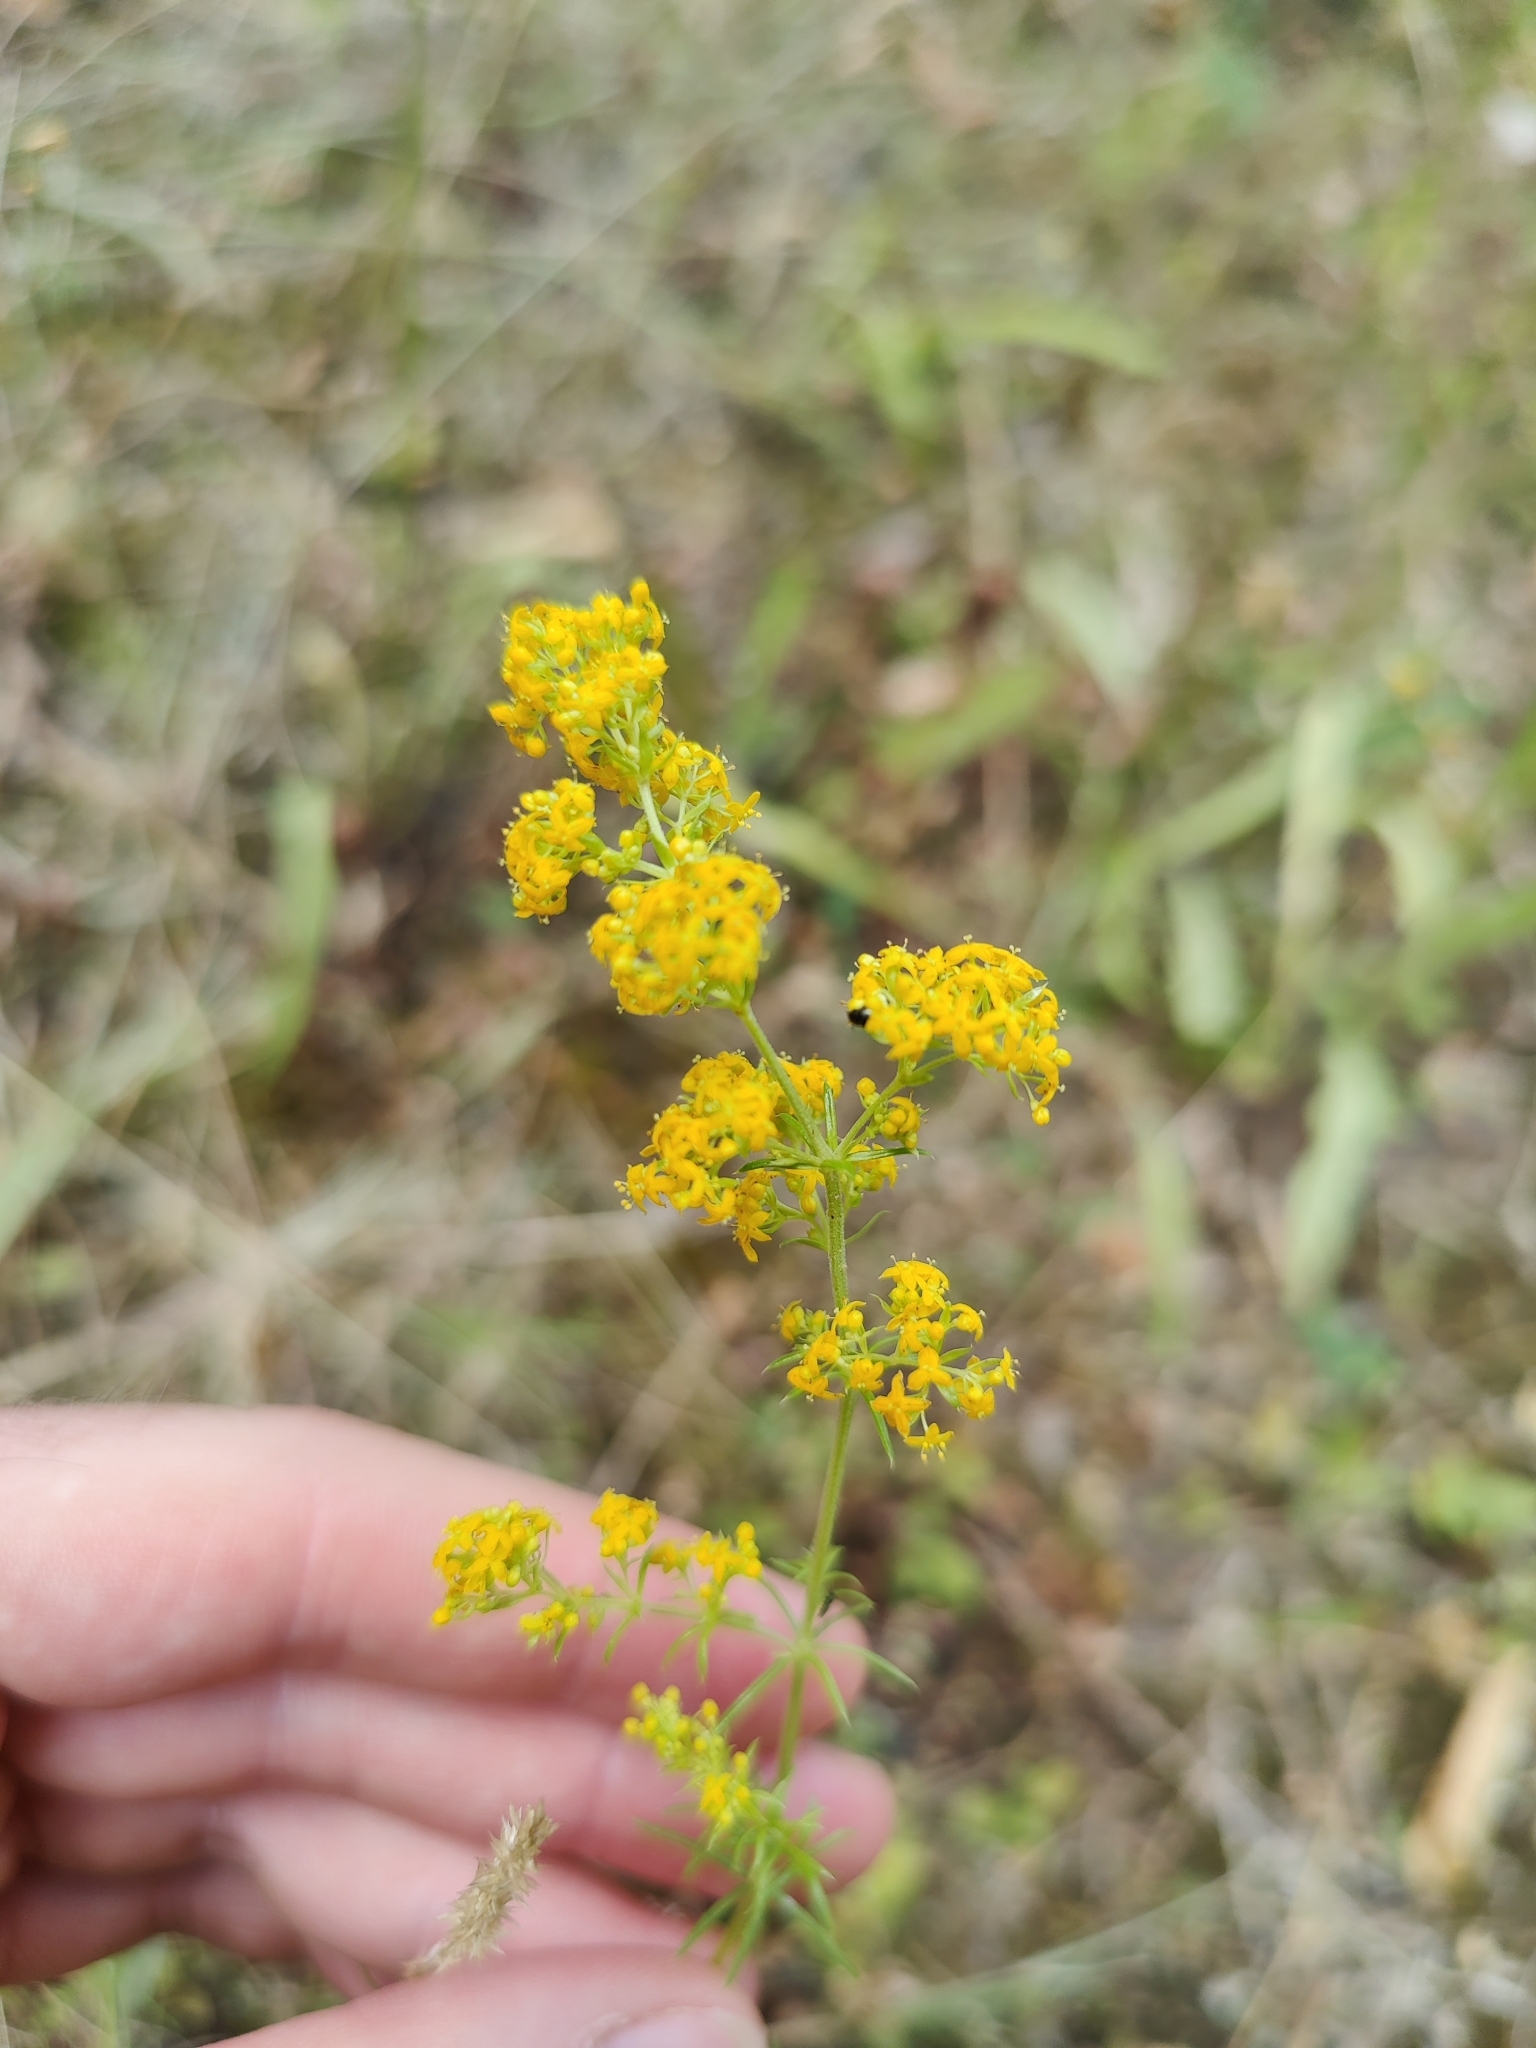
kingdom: Plantae
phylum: Tracheophyta
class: Magnoliopsida
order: Gentianales
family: Rubiaceae
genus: Galium
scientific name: Galium verum
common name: Lady's bedstraw
